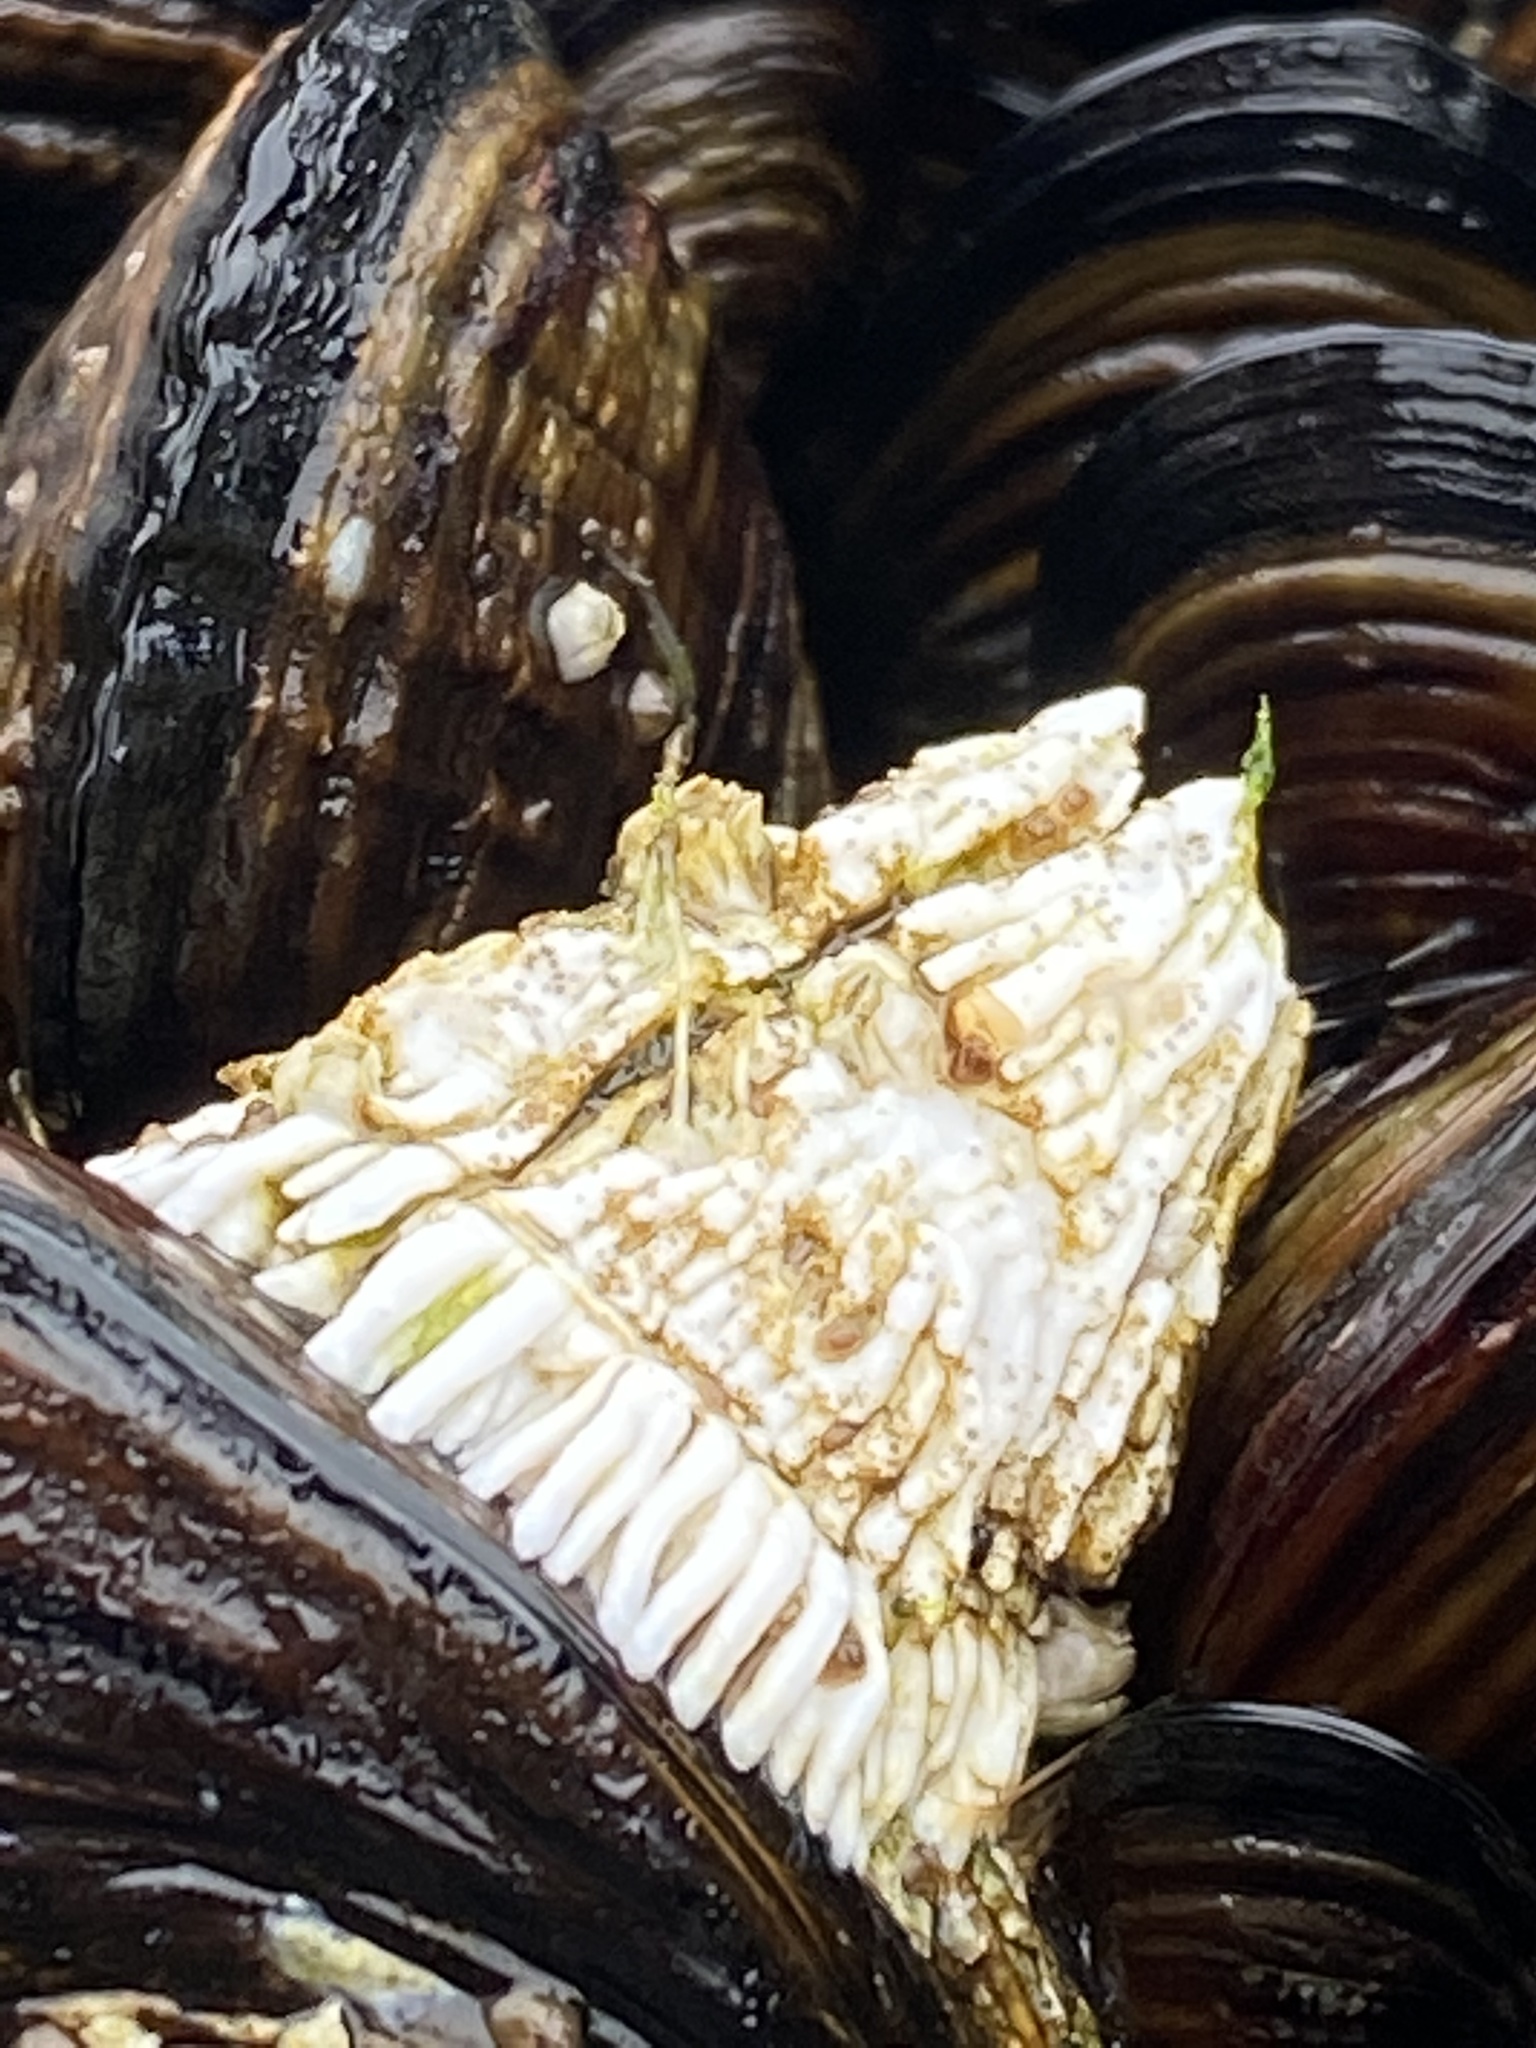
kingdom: Animalia
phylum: Arthropoda
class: Maxillopoda
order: Sessilia
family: Archaeobalanidae
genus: Semibalanus
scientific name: Semibalanus cariosus
